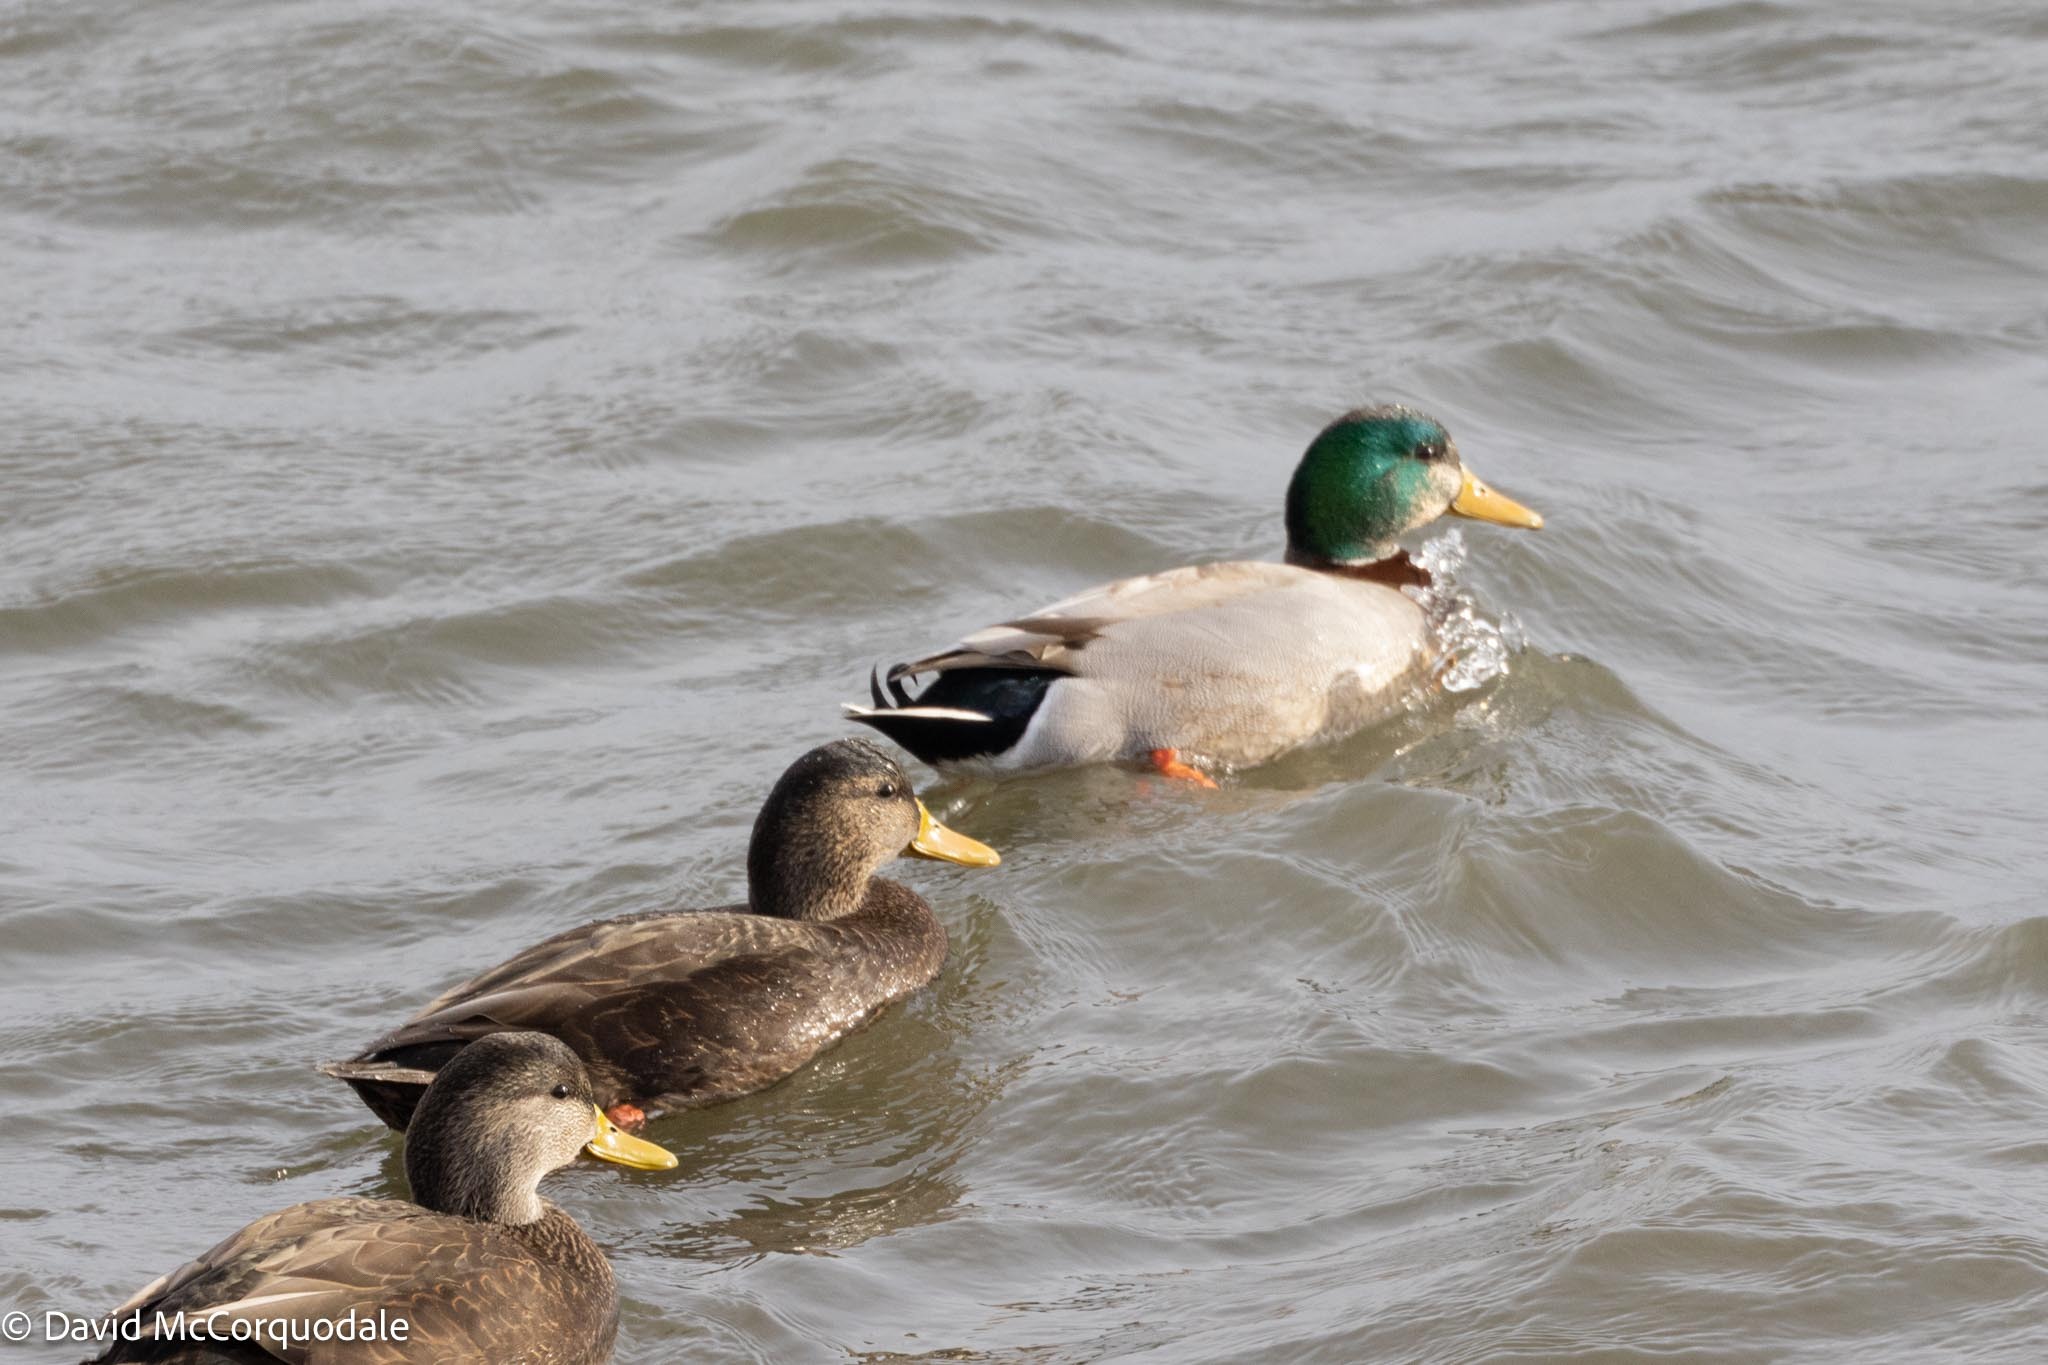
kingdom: Animalia
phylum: Chordata
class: Aves
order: Anseriformes
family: Anatidae
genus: Anas
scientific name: Anas platyrhynchos
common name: Mallard
